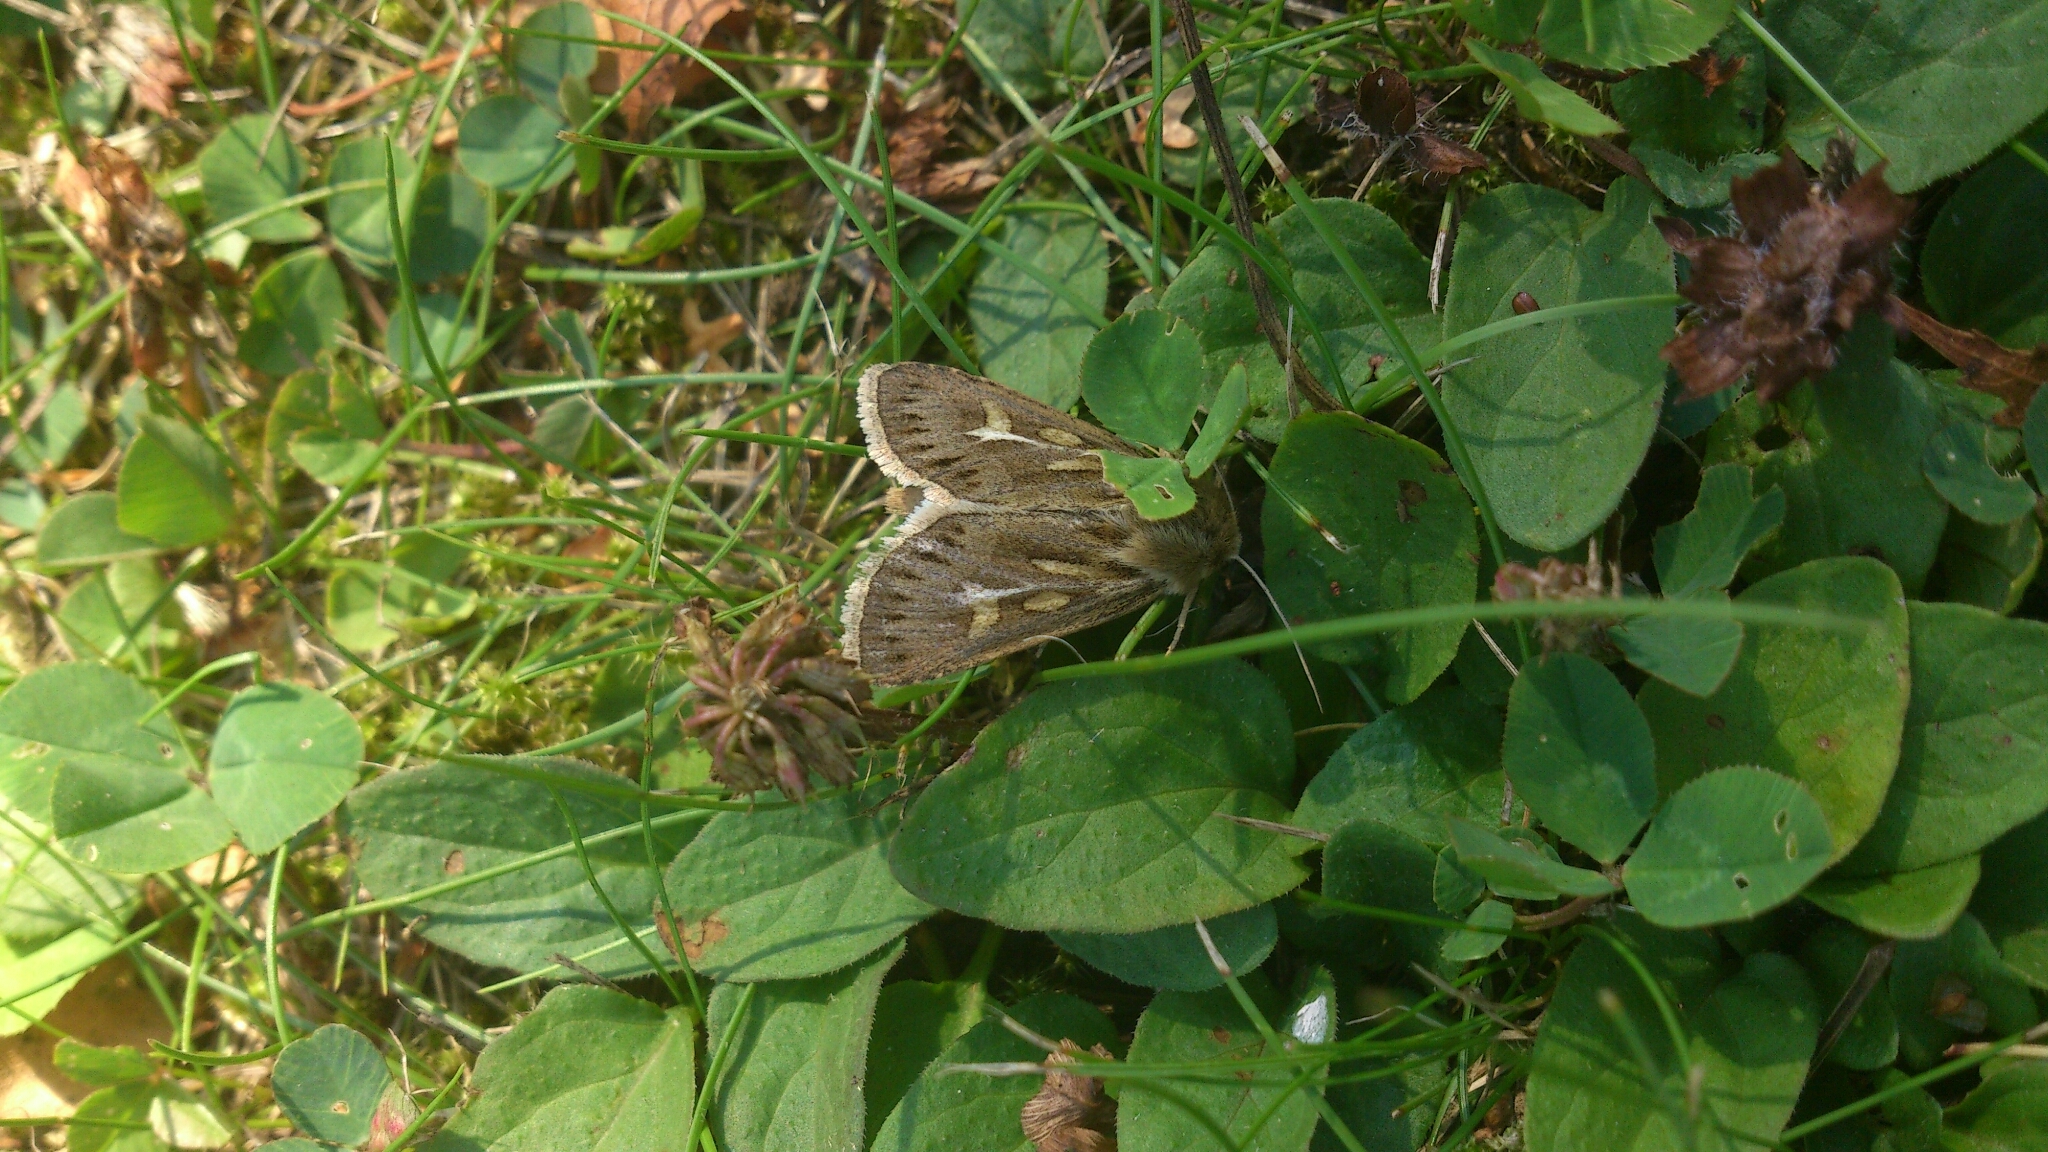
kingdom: Animalia
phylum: Arthropoda
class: Insecta
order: Lepidoptera
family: Noctuidae
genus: Cerapteryx
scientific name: Cerapteryx graminis
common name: Antler moth
